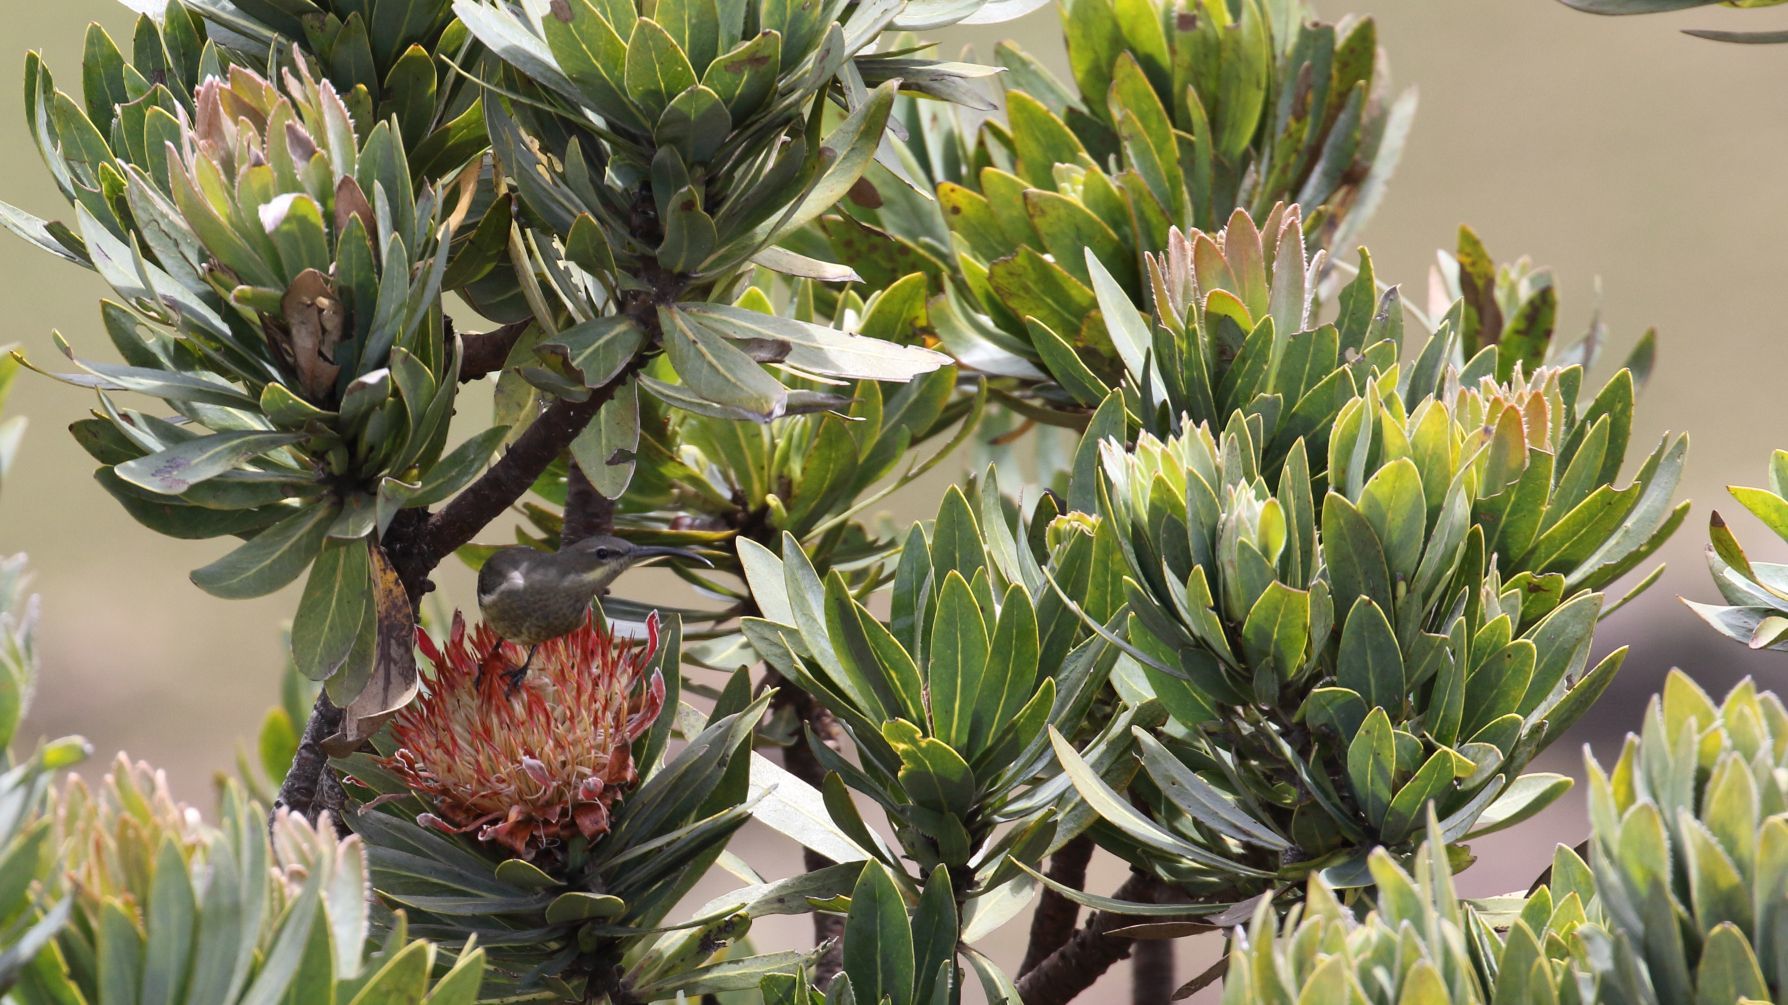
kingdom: Animalia
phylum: Chordata
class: Aves
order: Passeriformes
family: Nectariniidae
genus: Nectarinia
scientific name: Nectarinia famosa
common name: Malachite sunbird
